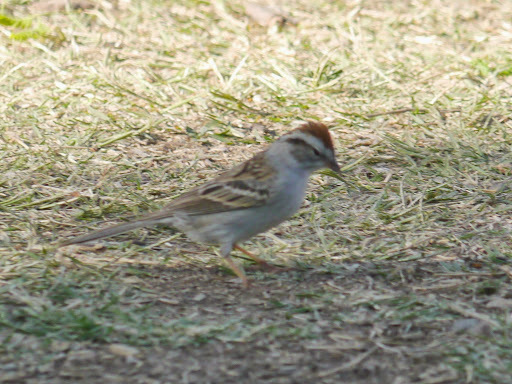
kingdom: Animalia
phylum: Chordata
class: Aves
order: Passeriformes
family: Passerellidae
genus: Spizella
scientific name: Spizella passerina
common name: Chipping sparrow
